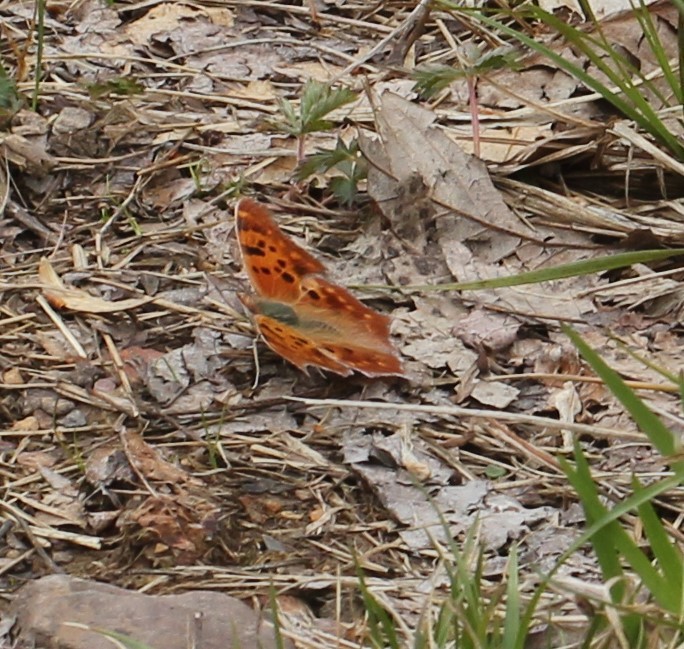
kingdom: Animalia
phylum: Arthropoda
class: Insecta
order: Lepidoptera
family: Nymphalidae
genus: Polygonia
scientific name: Polygonia interrogationis
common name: Question mark
